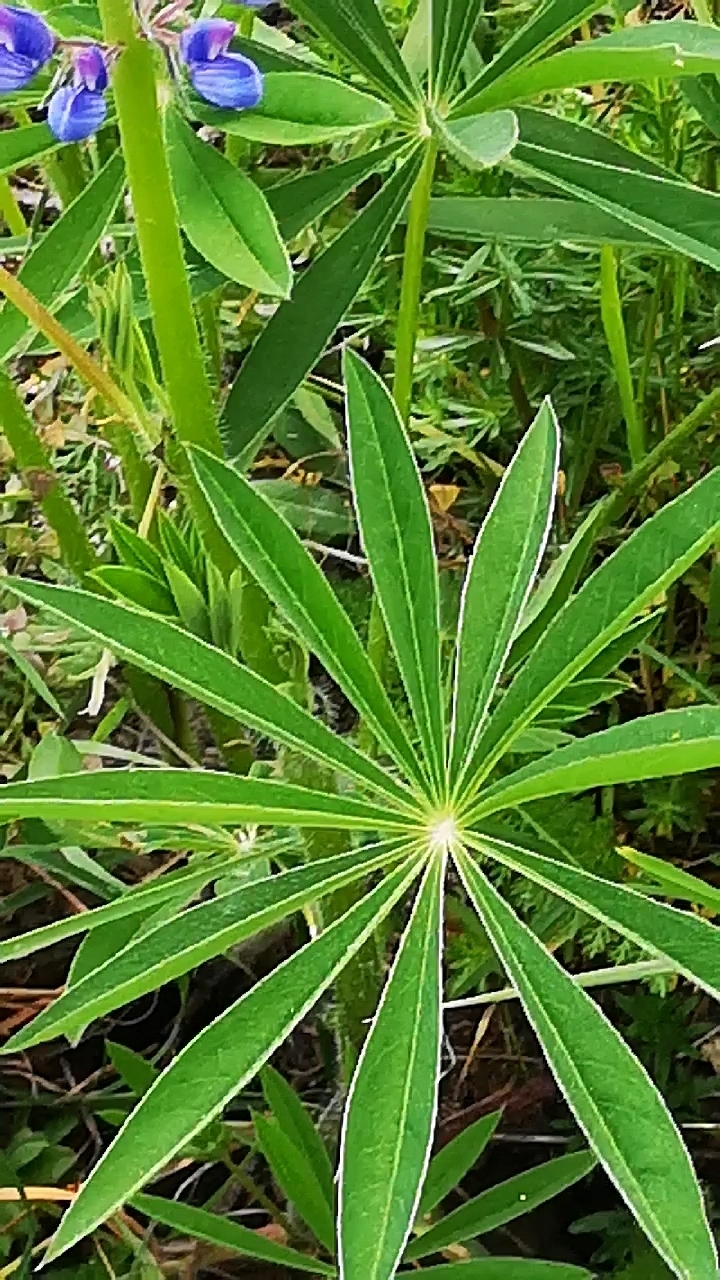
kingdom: Plantae
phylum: Tracheophyta
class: Magnoliopsida
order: Fabales
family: Fabaceae
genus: Lupinus
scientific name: Lupinus polyphyllus
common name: Garden lupin
